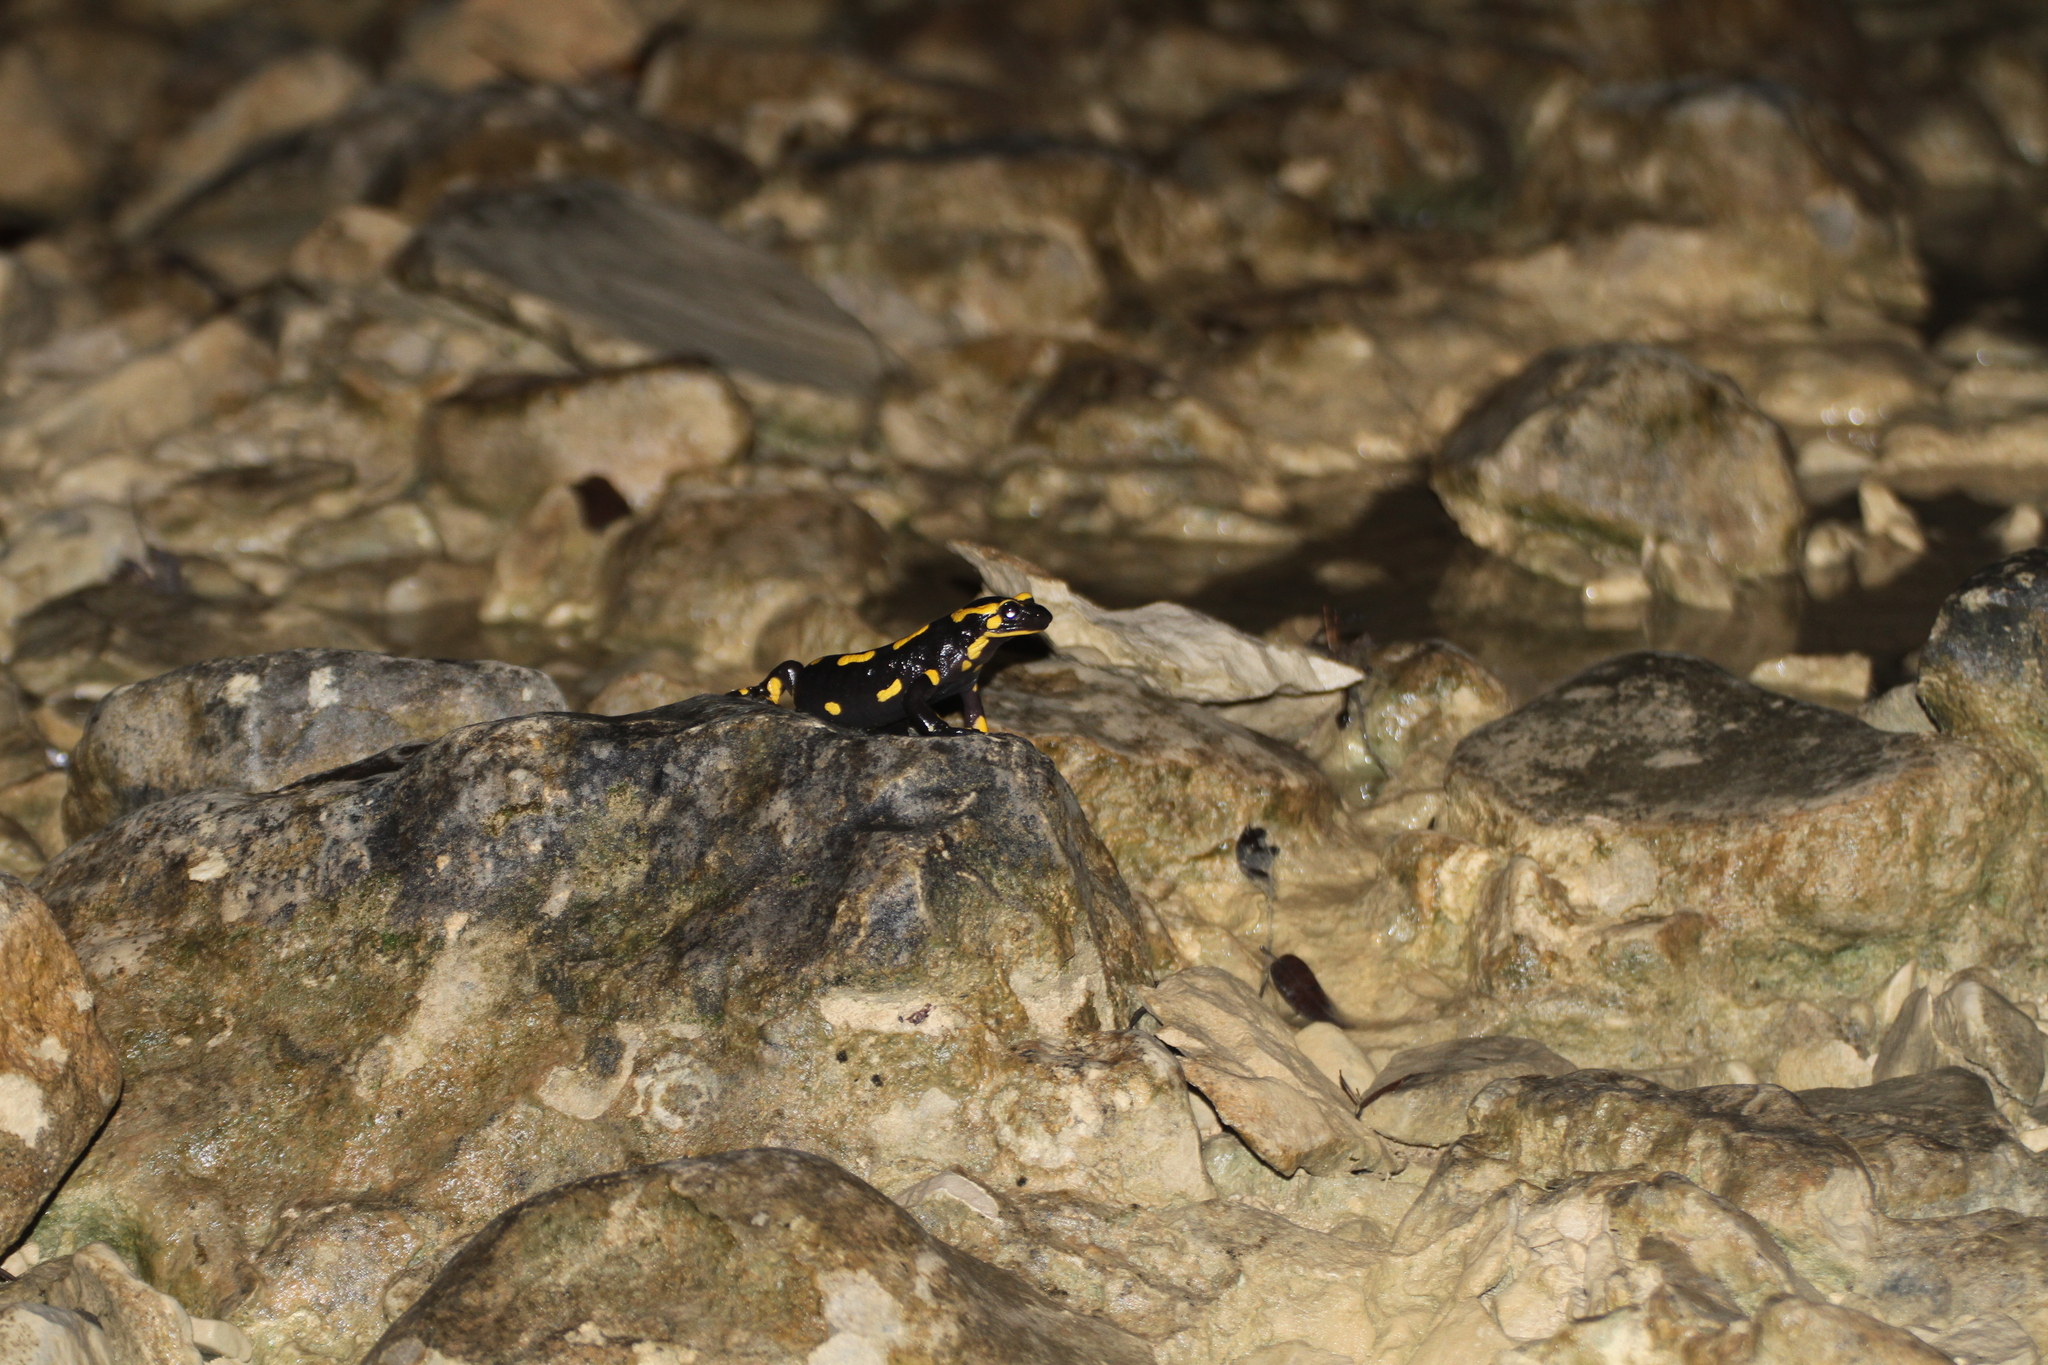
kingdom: Animalia
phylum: Chordata
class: Amphibia
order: Caudata
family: Salamandridae
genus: Salamandra
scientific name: Salamandra salamandra
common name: Fire salamander
